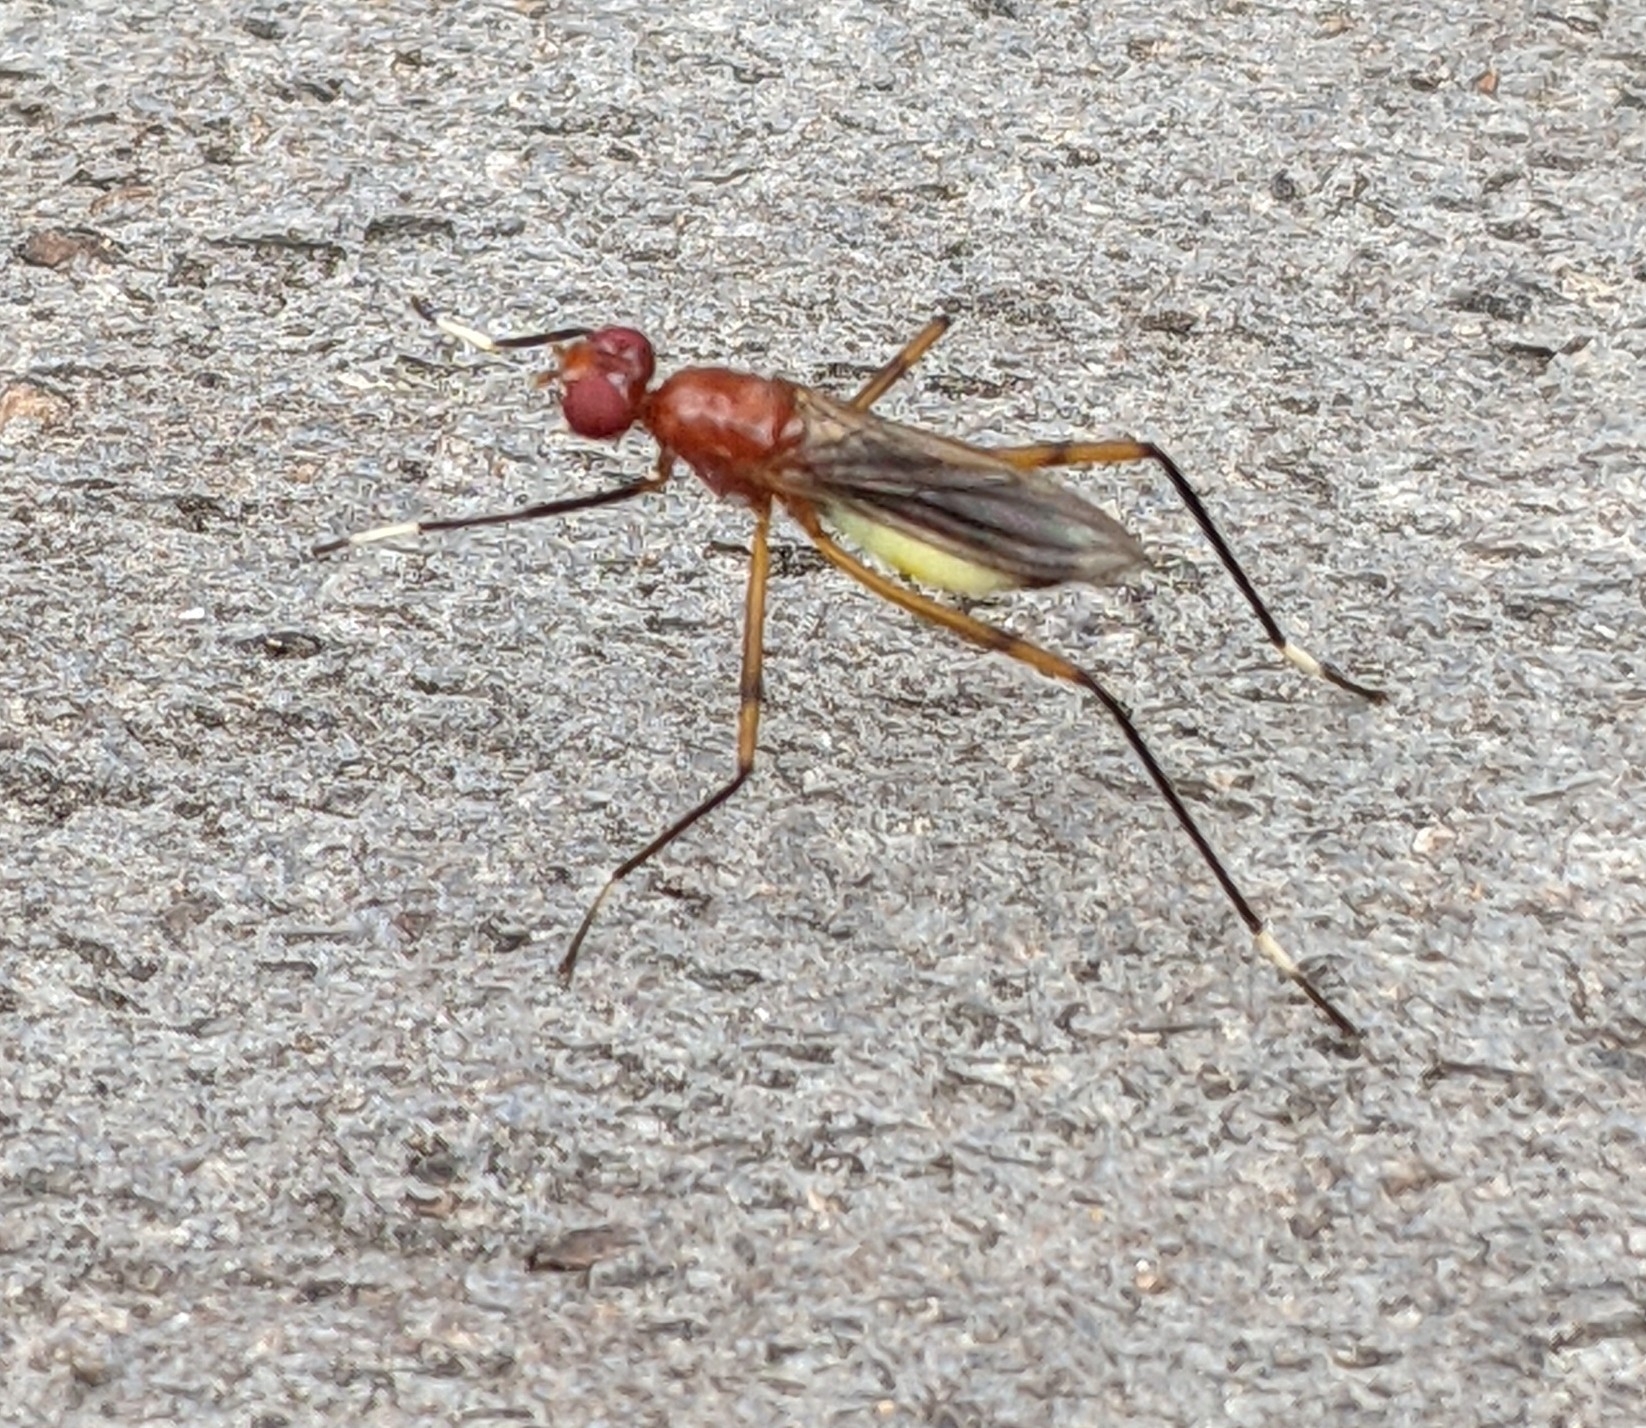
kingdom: Animalia
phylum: Arthropoda
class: Insecta
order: Diptera
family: Micropezidae
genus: Grallipeza
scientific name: Grallipeza nebulosa
